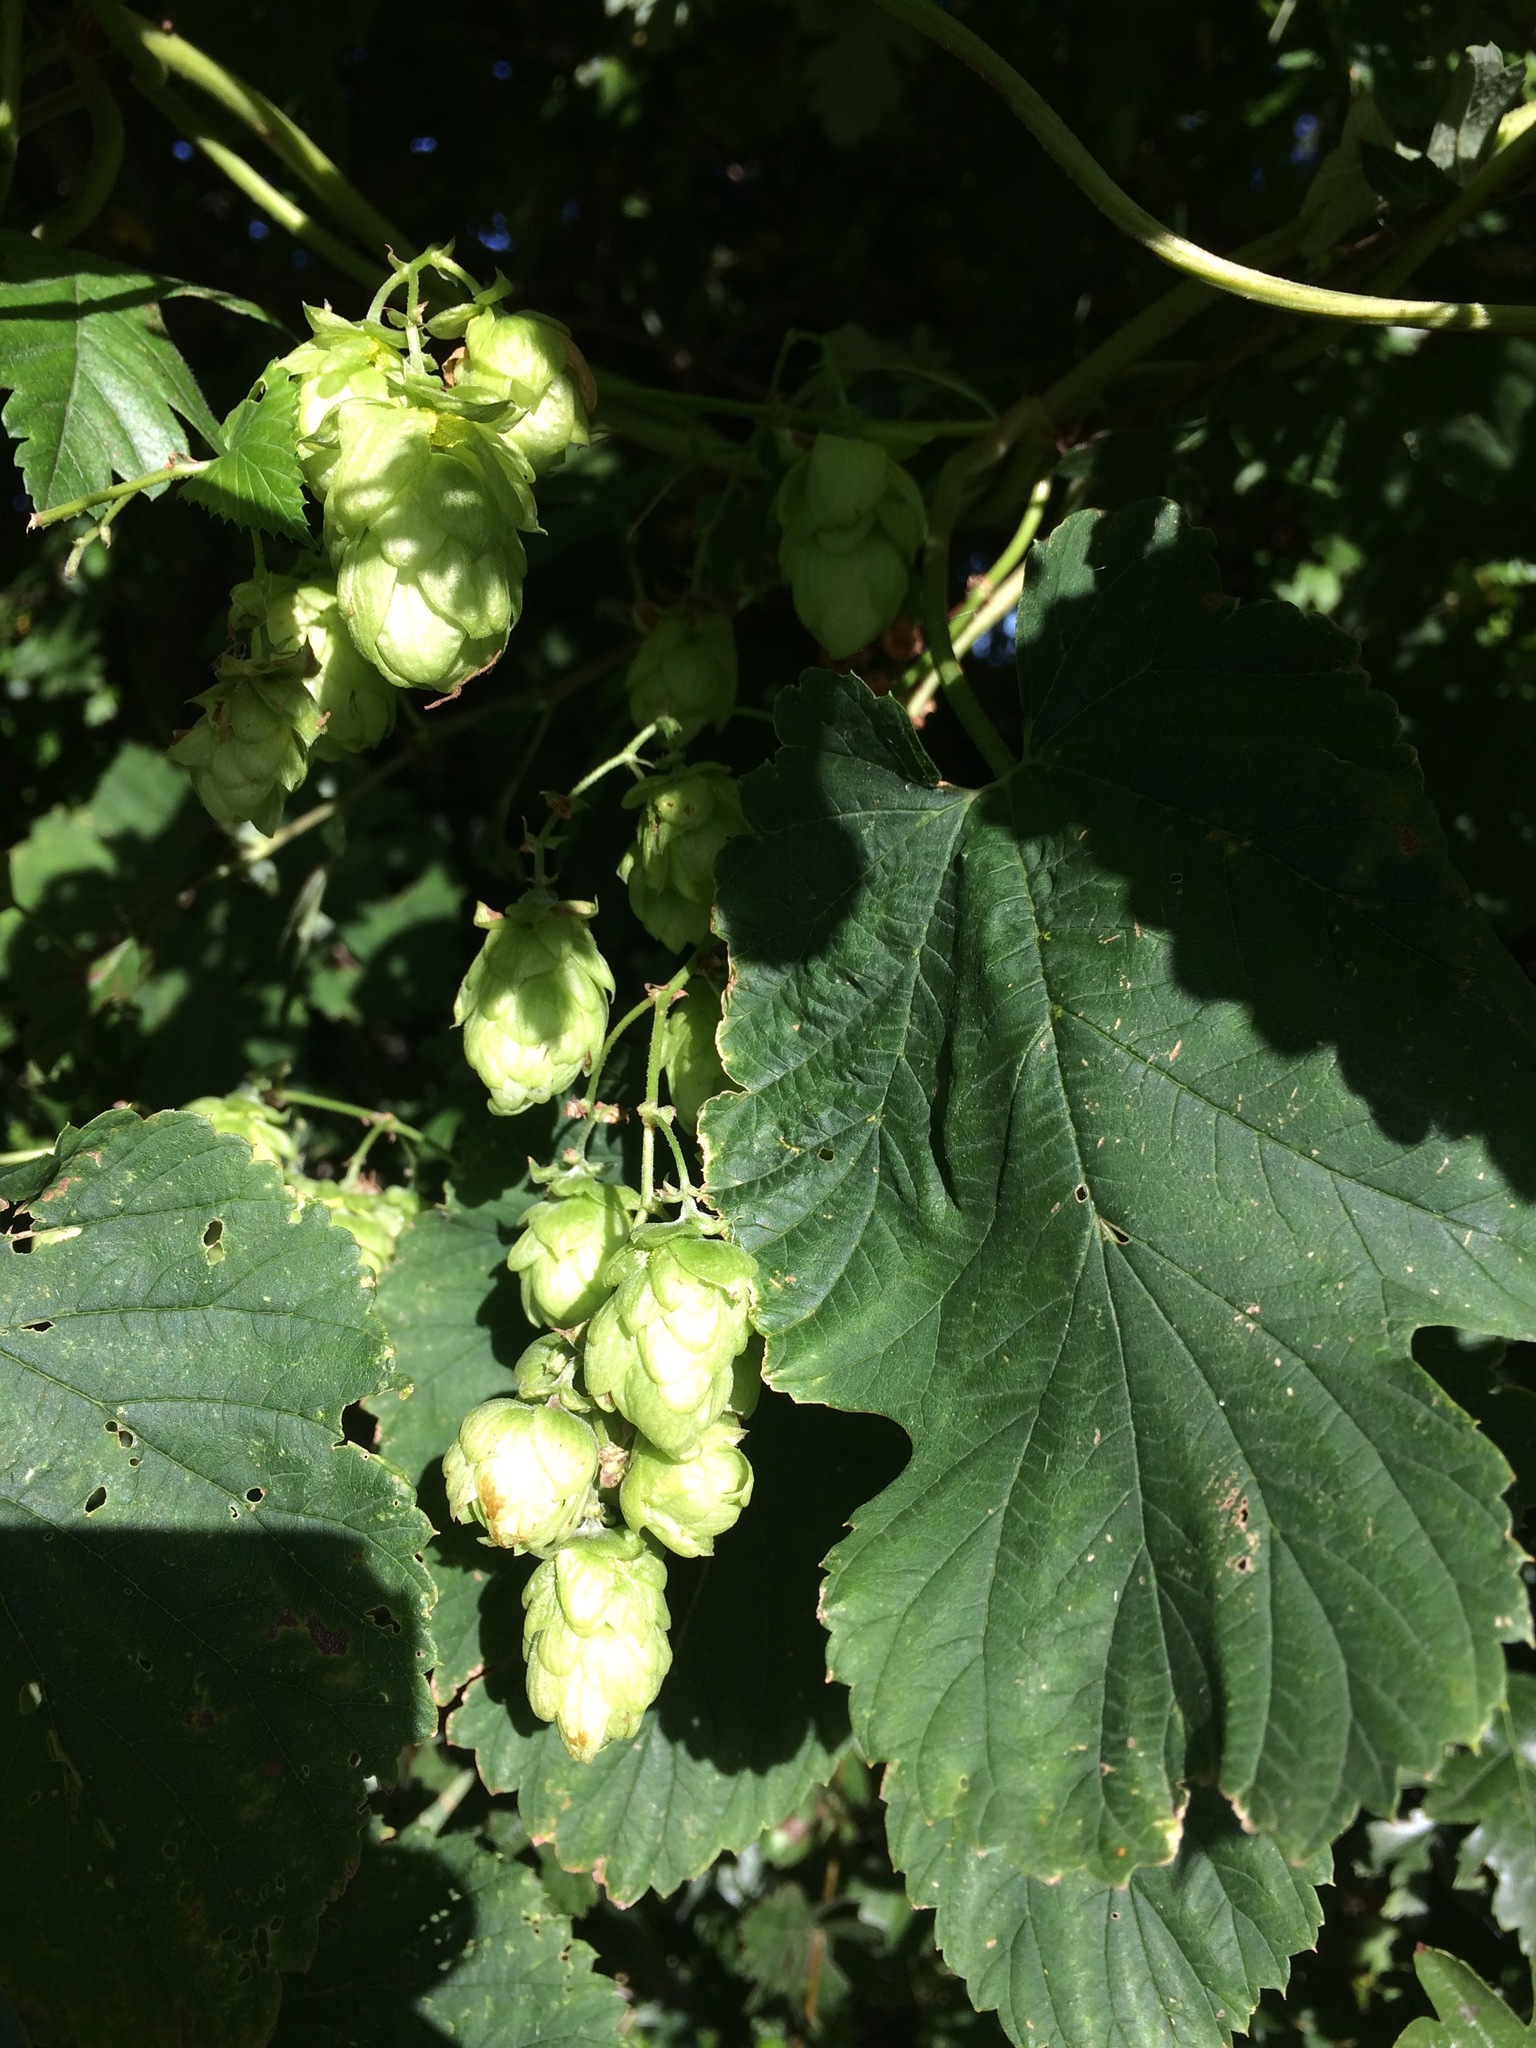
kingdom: Plantae
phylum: Tracheophyta
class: Magnoliopsida
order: Rosales
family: Cannabaceae
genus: Humulus
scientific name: Humulus lupulus
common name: Hop
